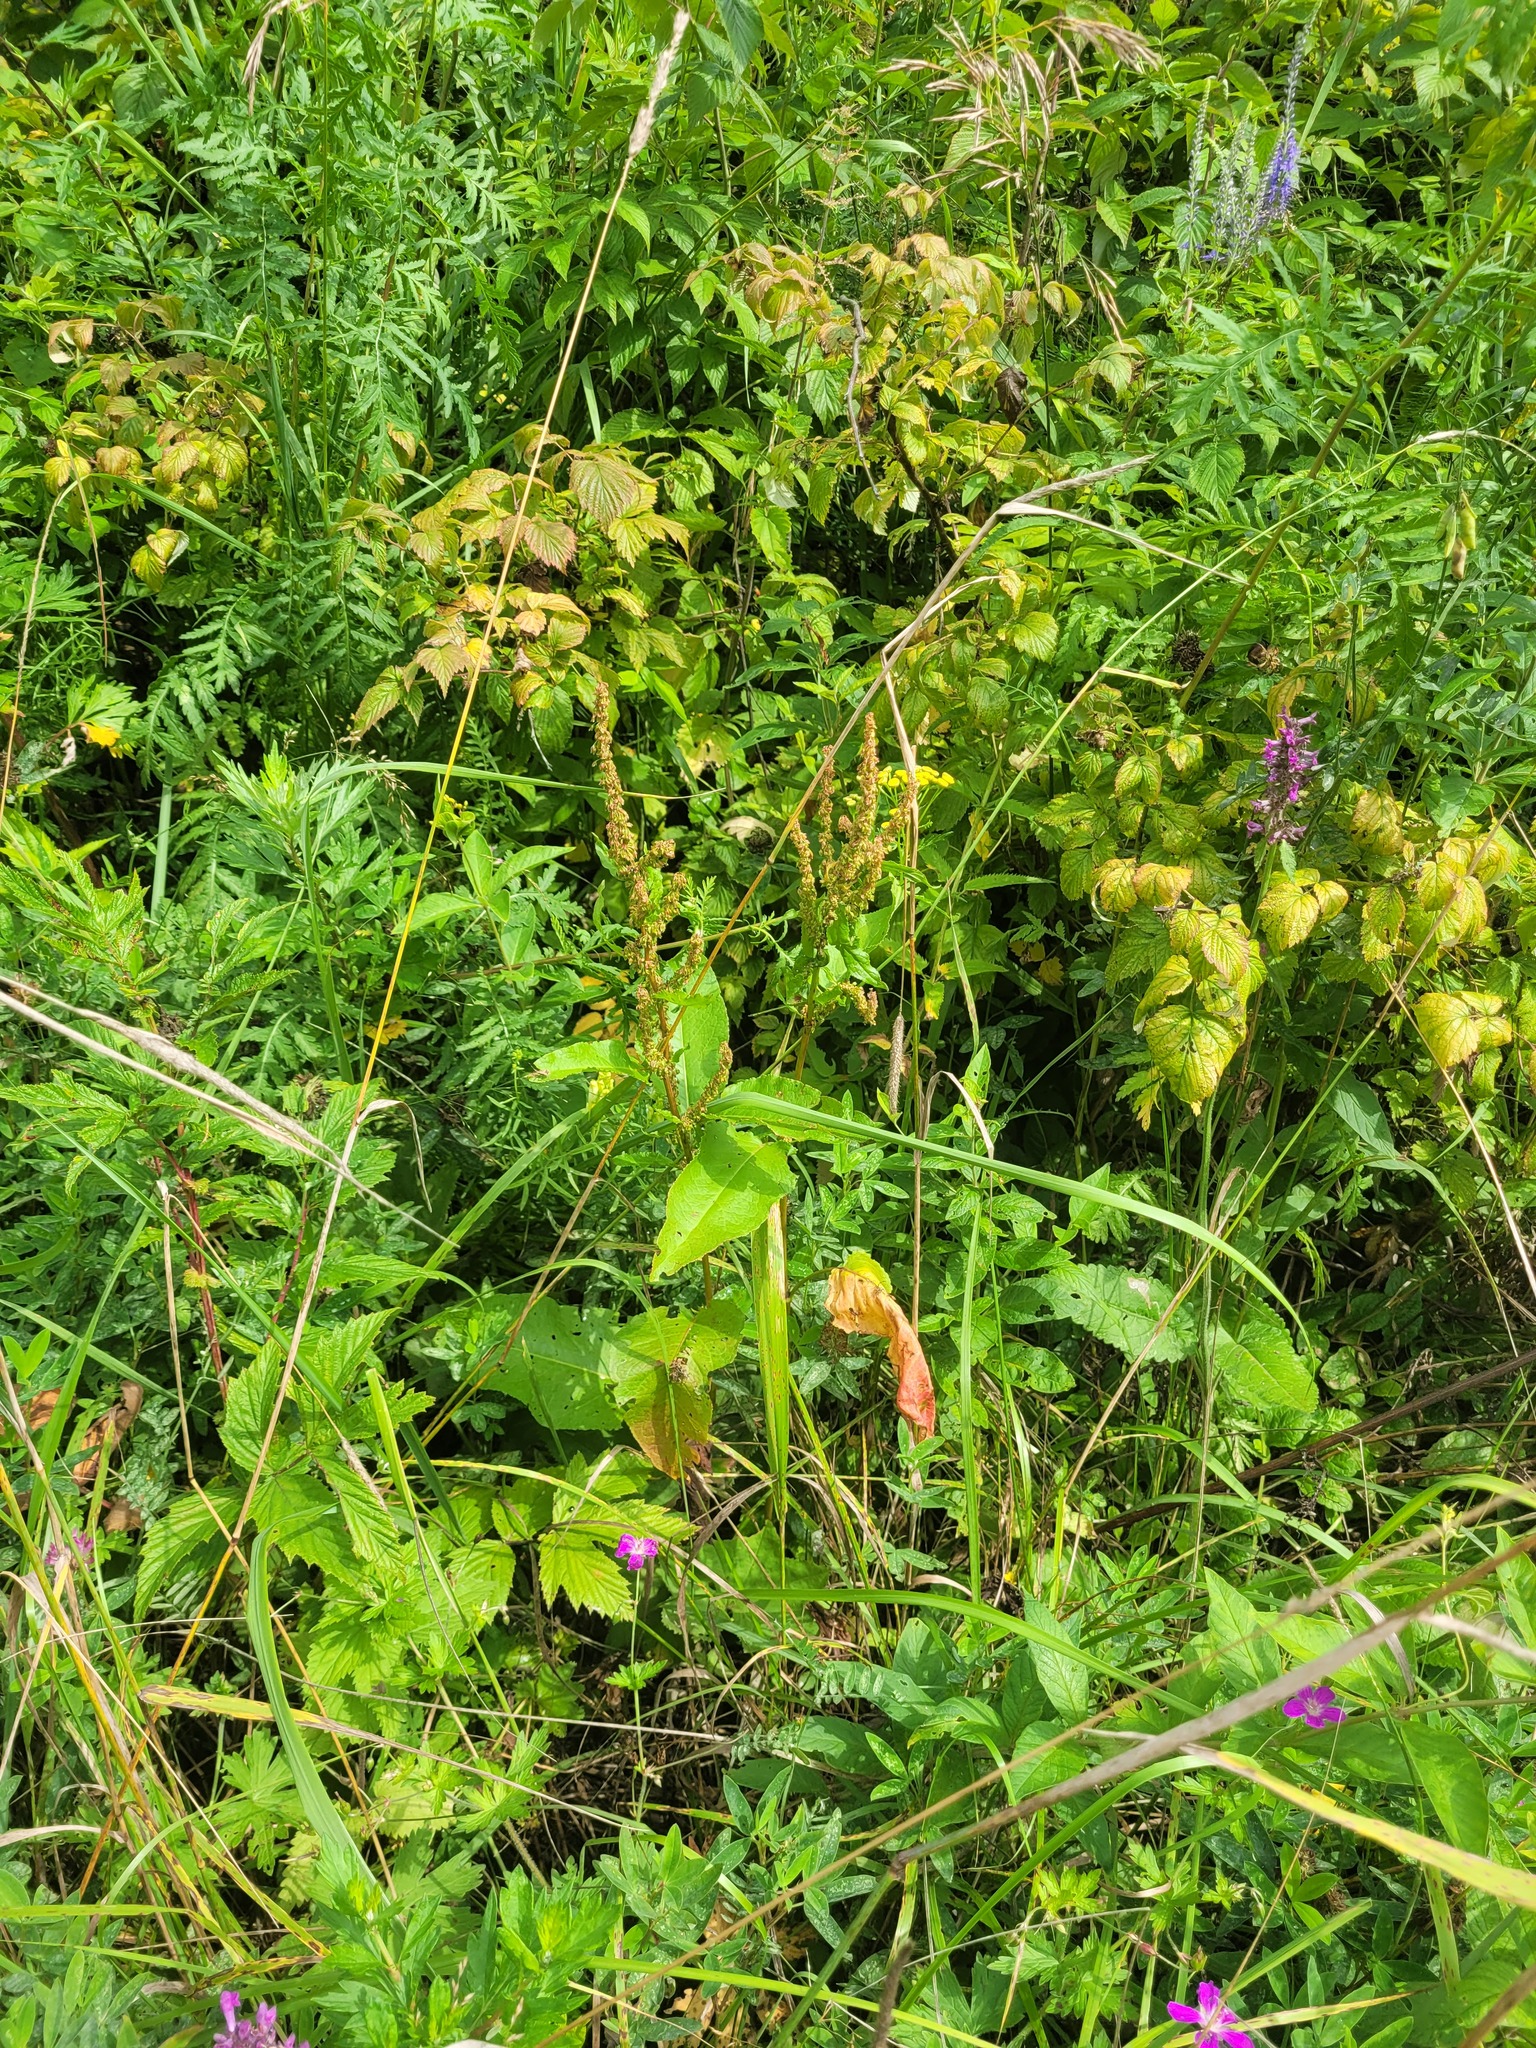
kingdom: Plantae
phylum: Tracheophyta
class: Magnoliopsida
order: Caryophyllales
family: Polygonaceae
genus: Rumex
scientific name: Rumex obtusifolius
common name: Bitter dock
